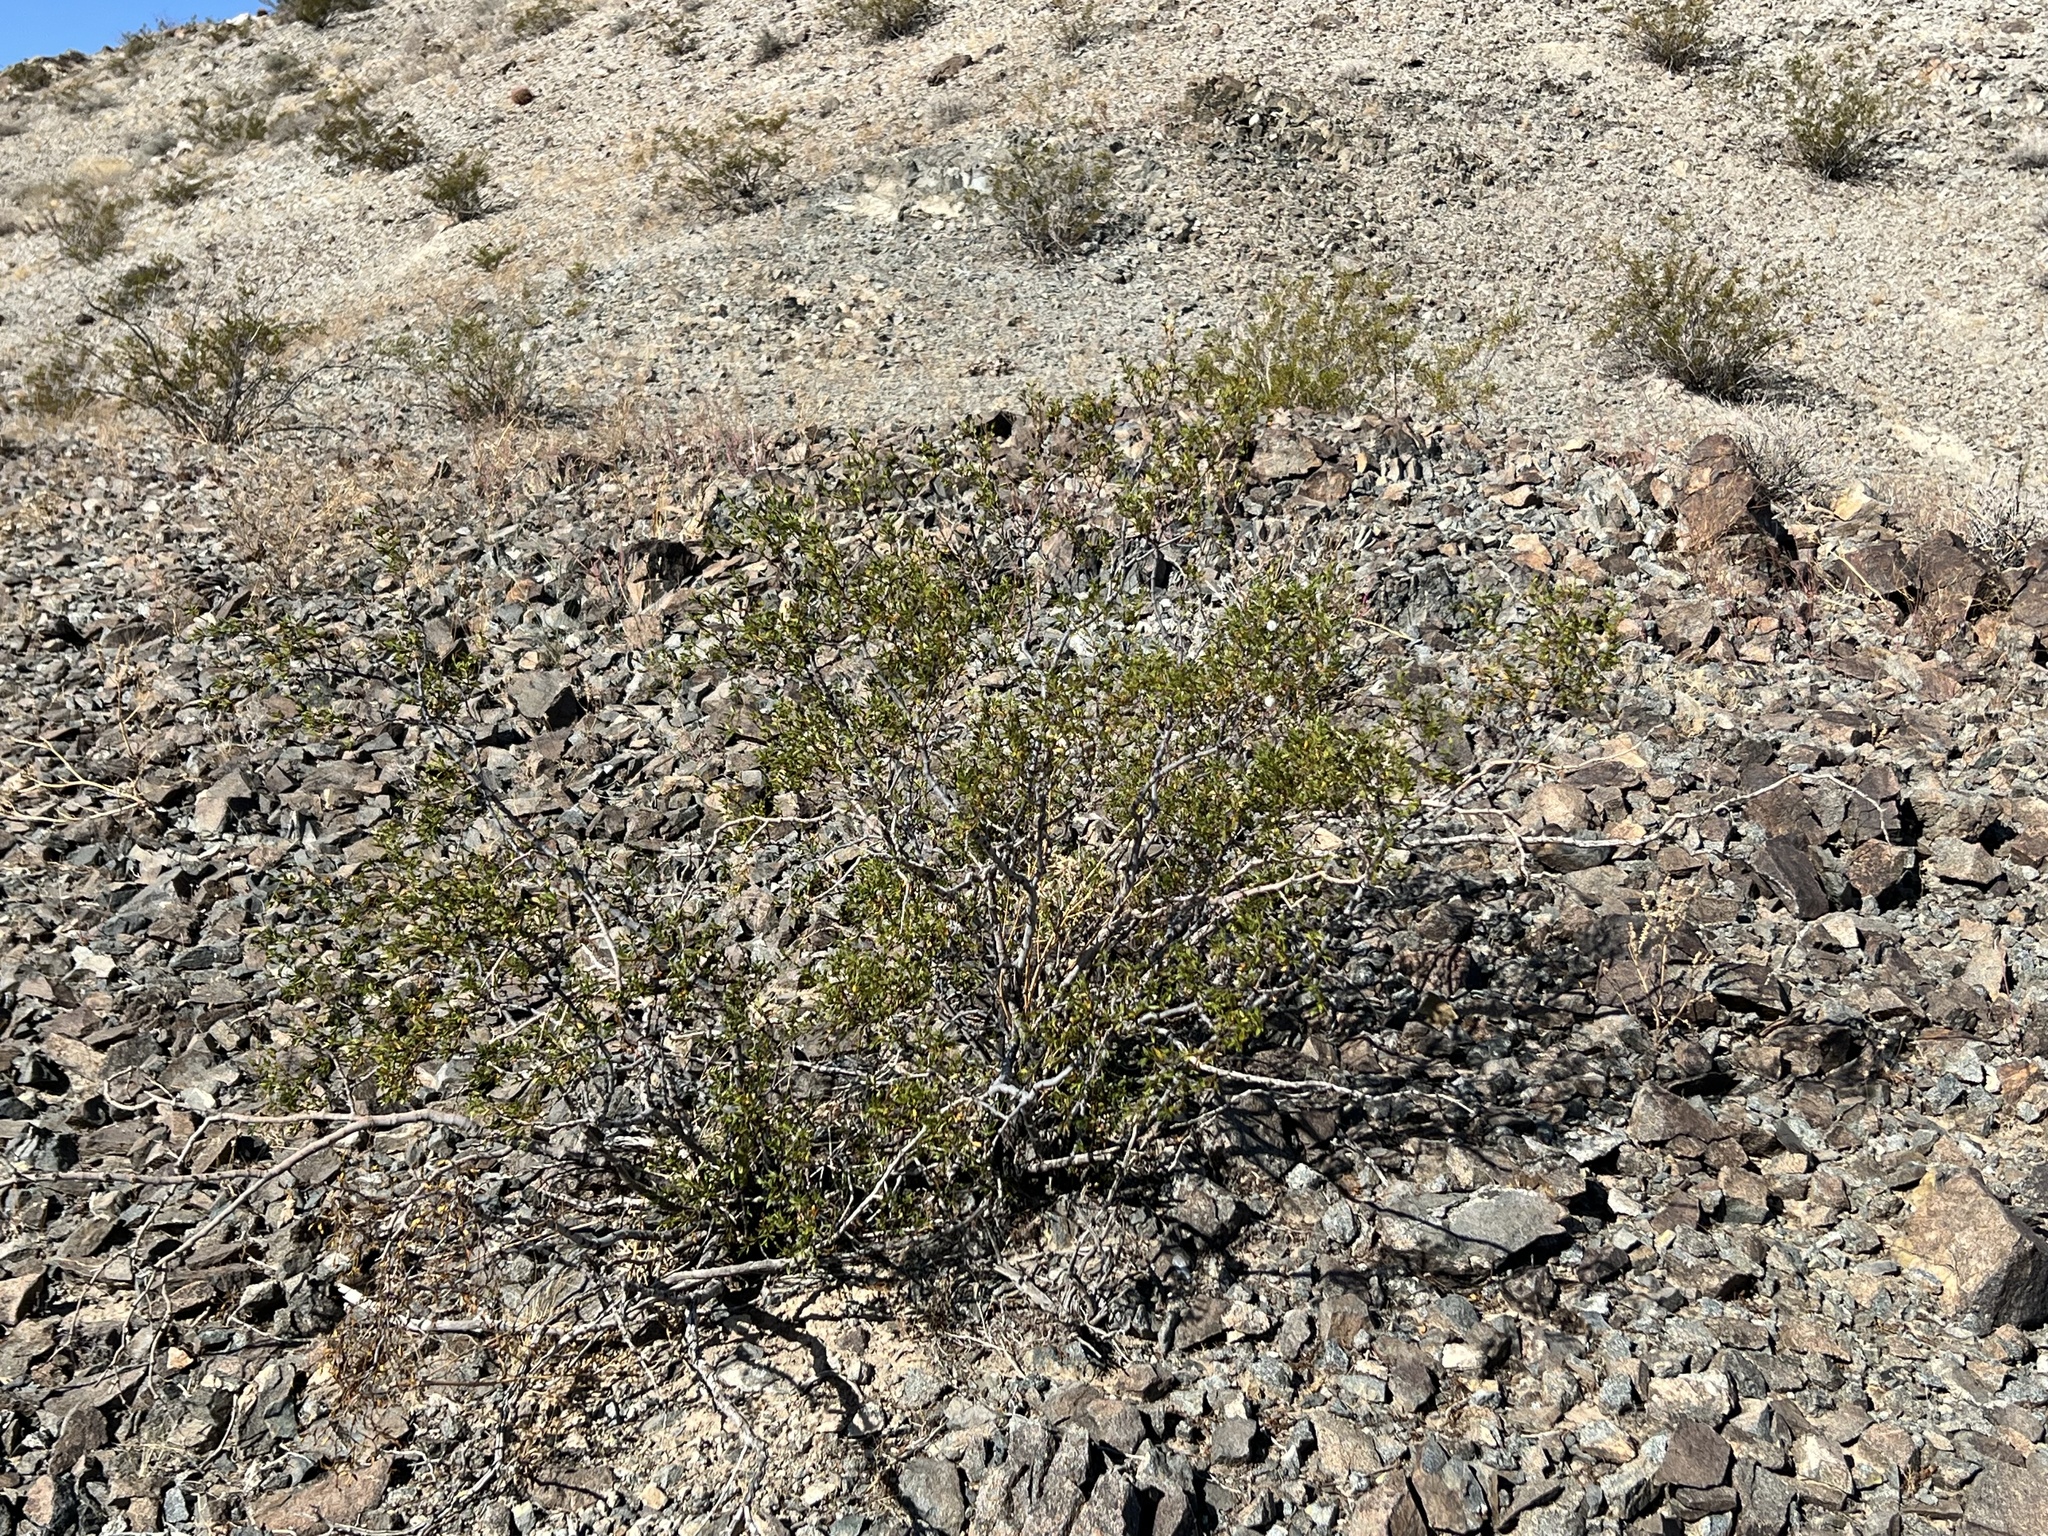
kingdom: Plantae
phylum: Tracheophyta
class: Magnoliopsida
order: Zygophyllales
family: Zygophyllaceae
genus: Larrea
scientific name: Larrea tridentata
